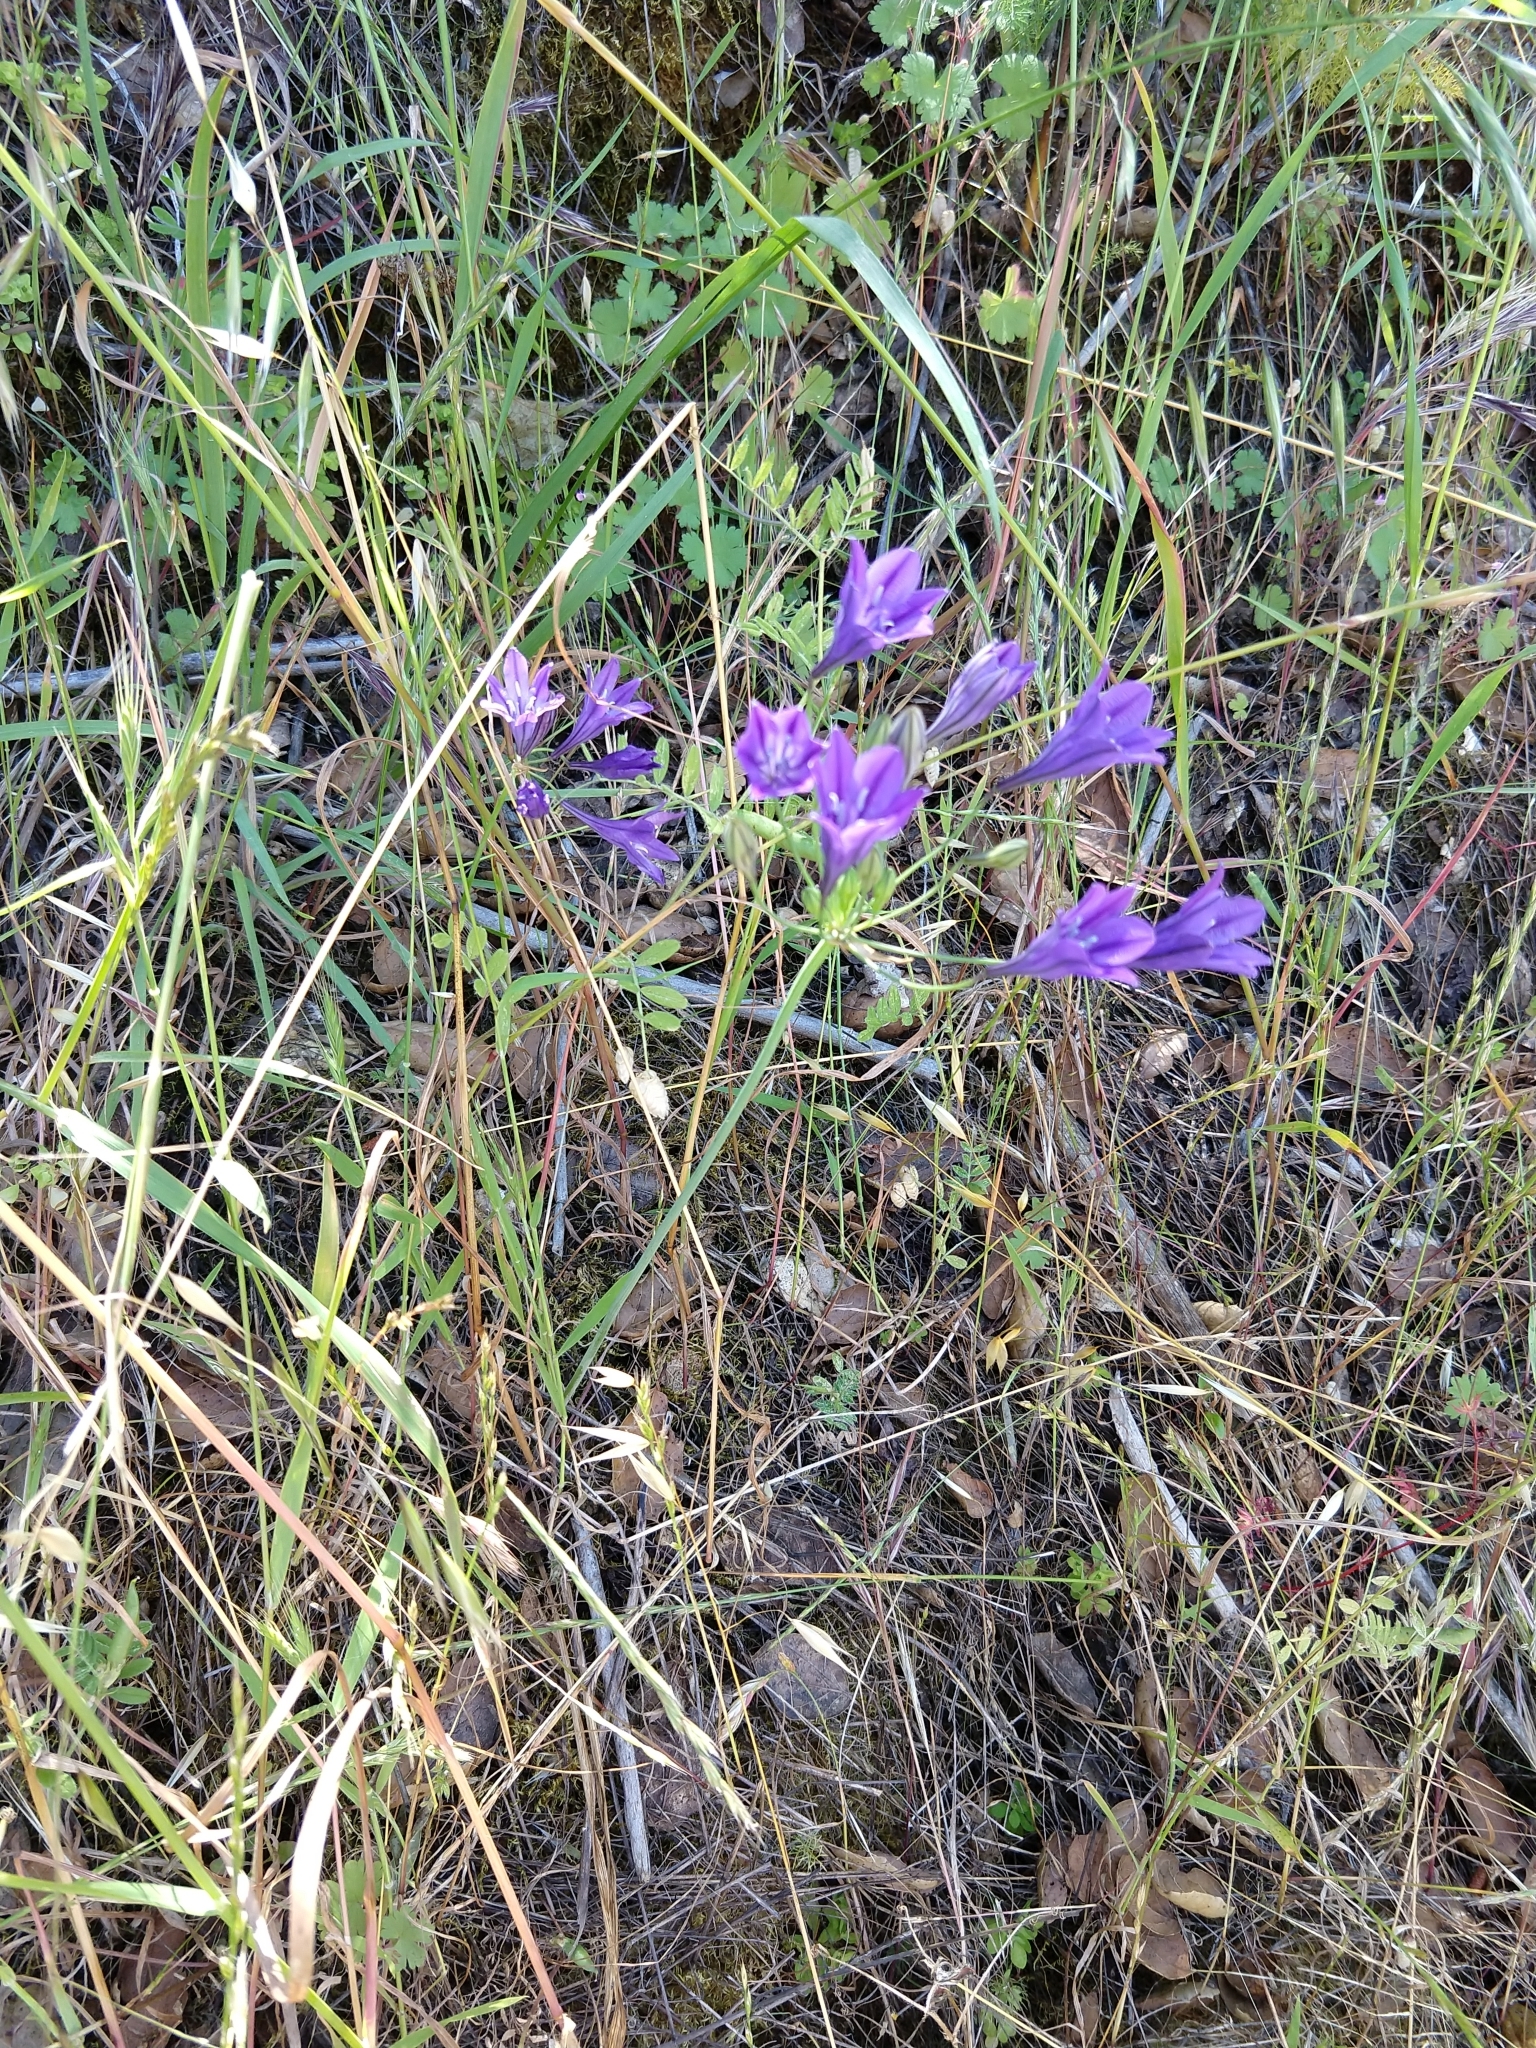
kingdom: Plantae
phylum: Tracheophyta
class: Liliopsida
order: Asparagales
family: Asparagaceae
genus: Triteleia
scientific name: Triteleia laxa
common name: Triplet-lily
